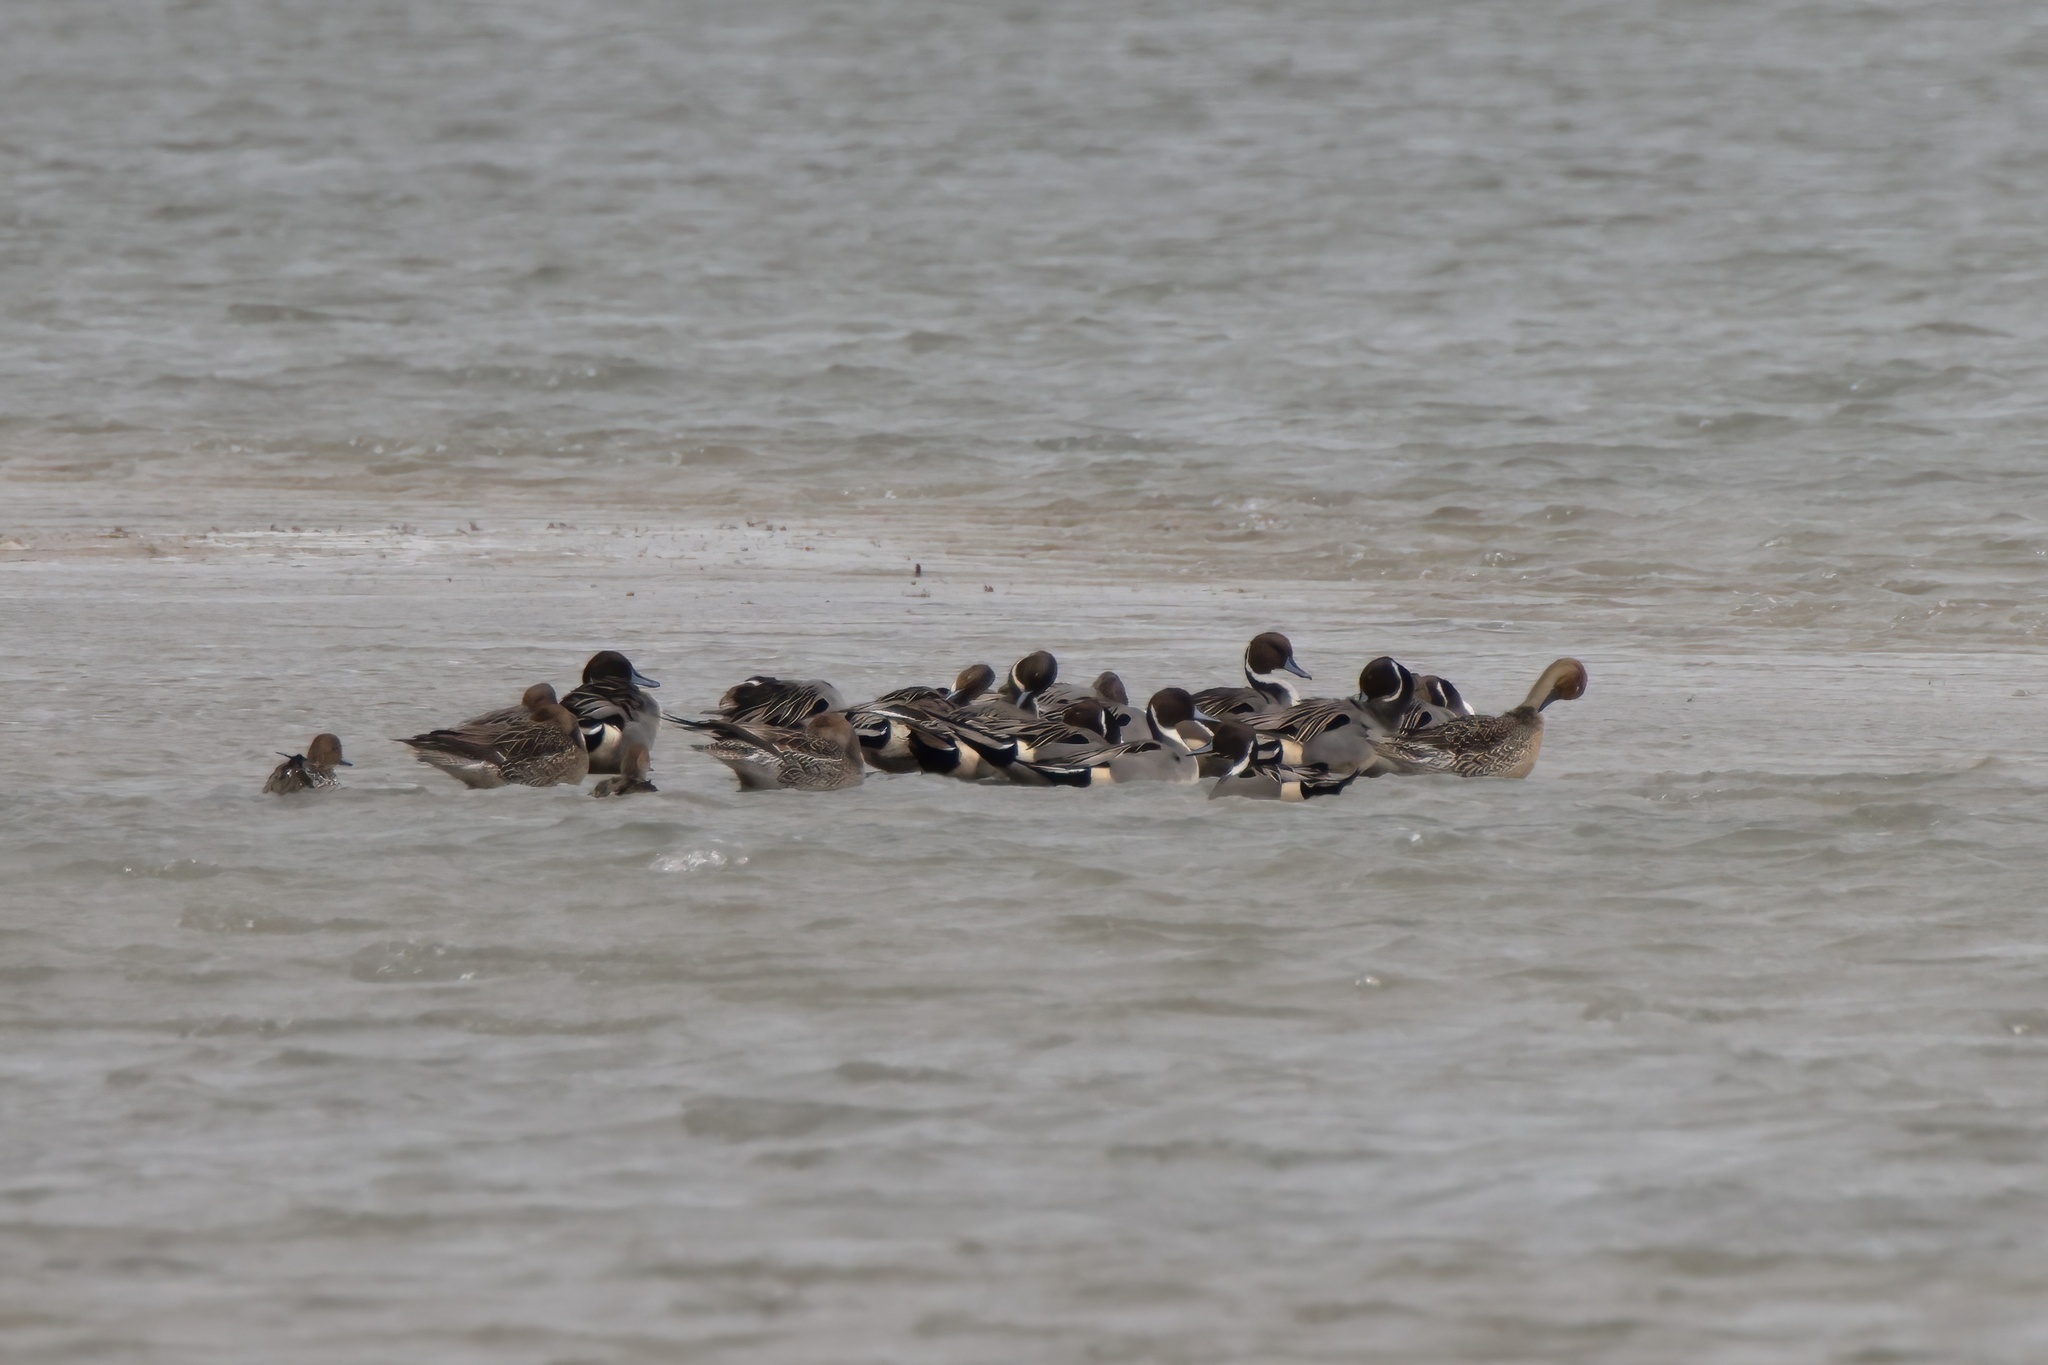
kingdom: Animalia
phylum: Chordata
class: Aves
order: Anseriformes
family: Anatidae
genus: Anas
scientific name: Anas acuta
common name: Northern pintail
